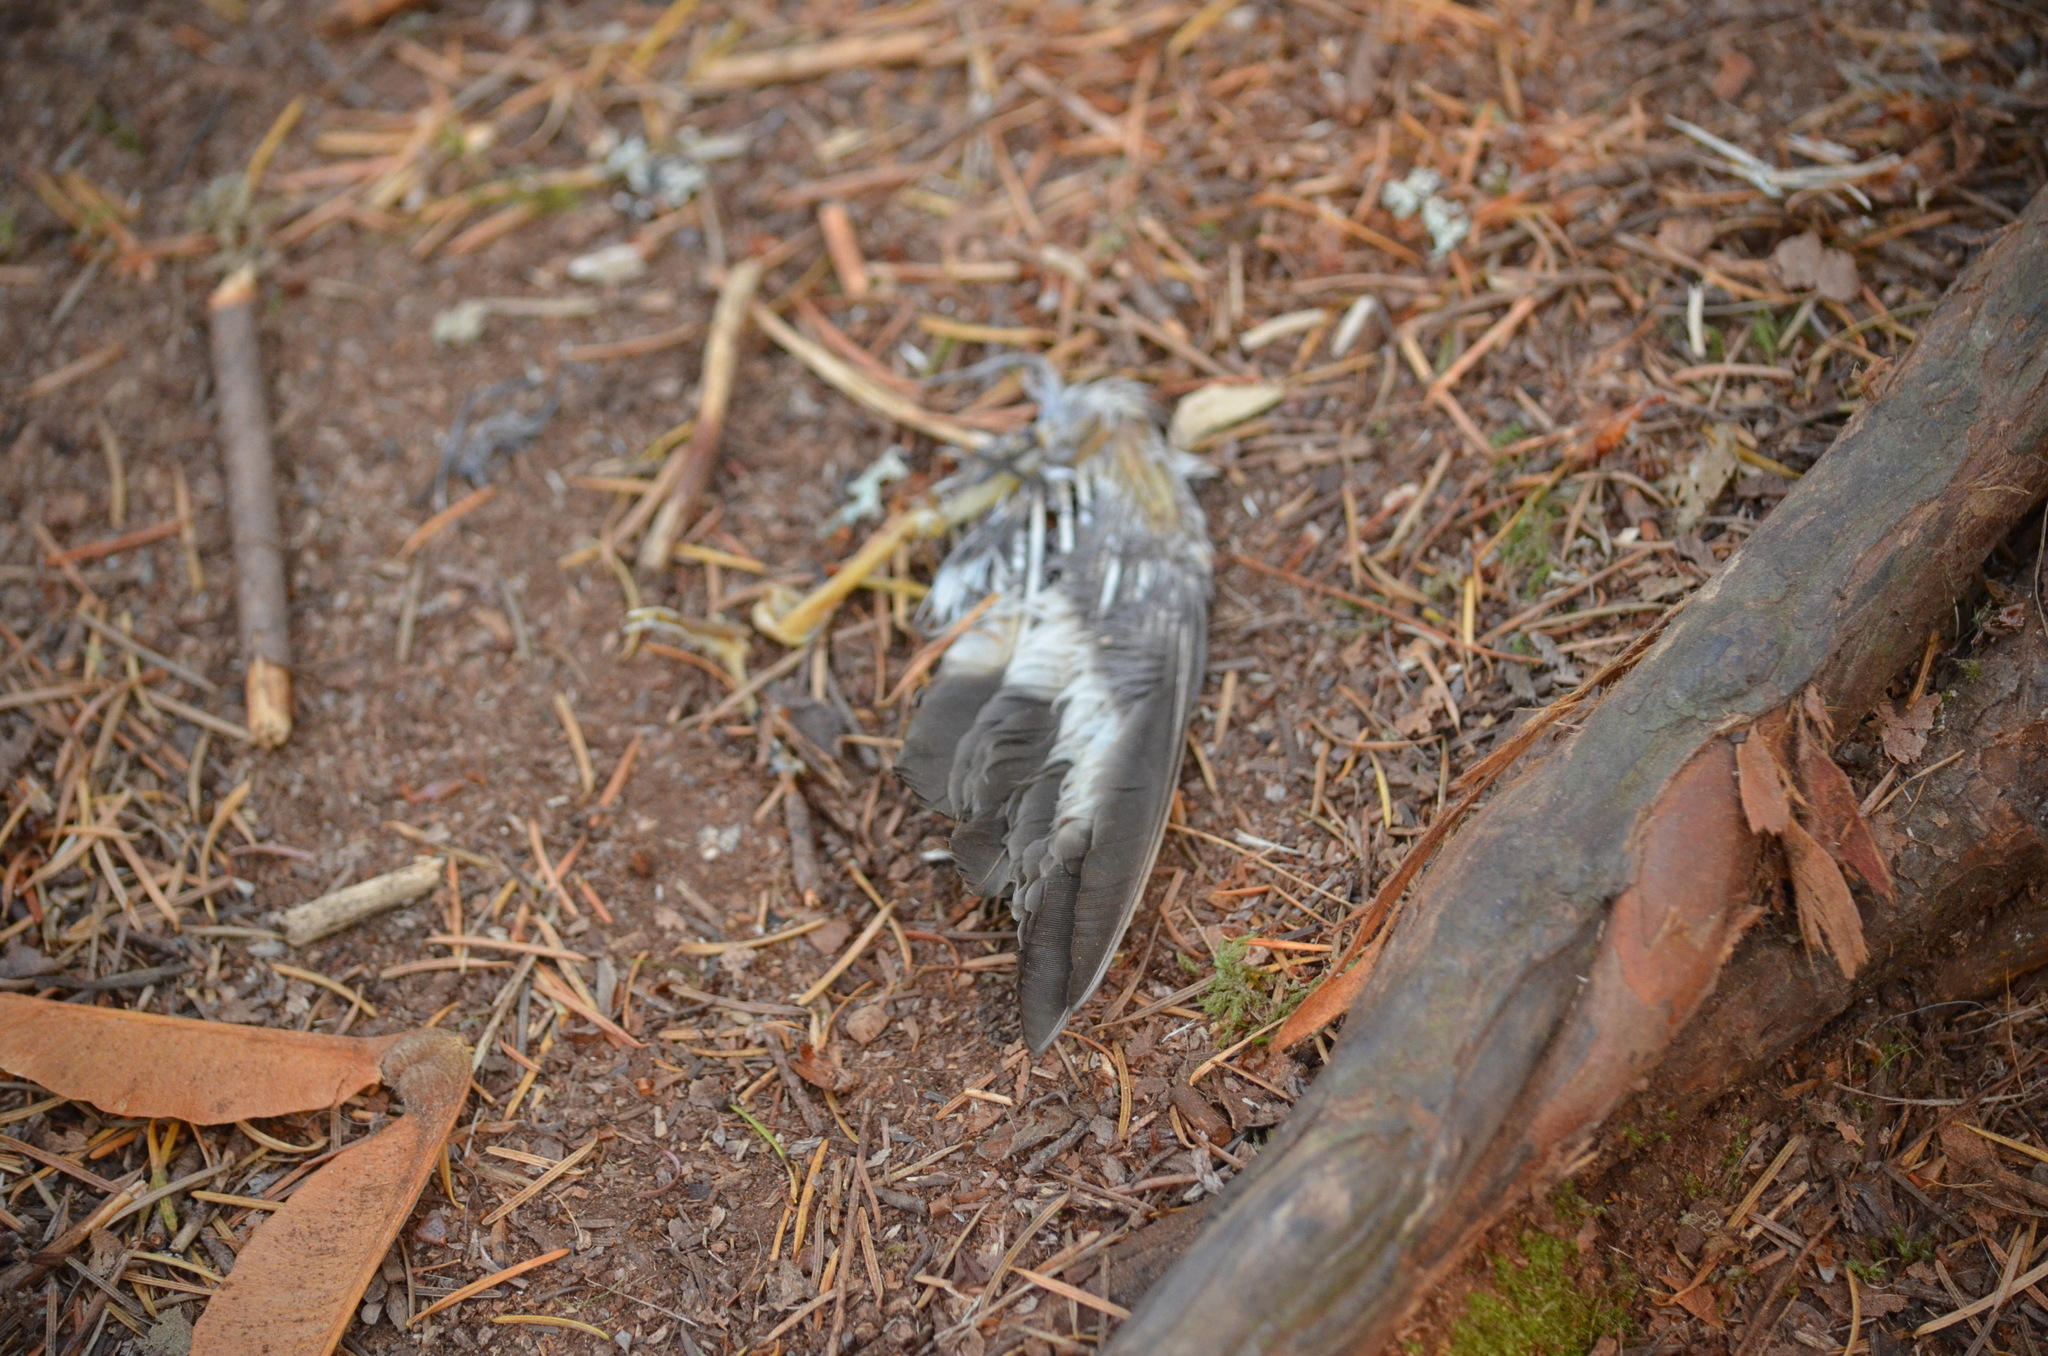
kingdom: Animalia
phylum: Chordata
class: Aves
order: Passeriformes
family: Turdidae
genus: Ixoreus
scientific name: Ixoreus naevius
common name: Varied thrush
